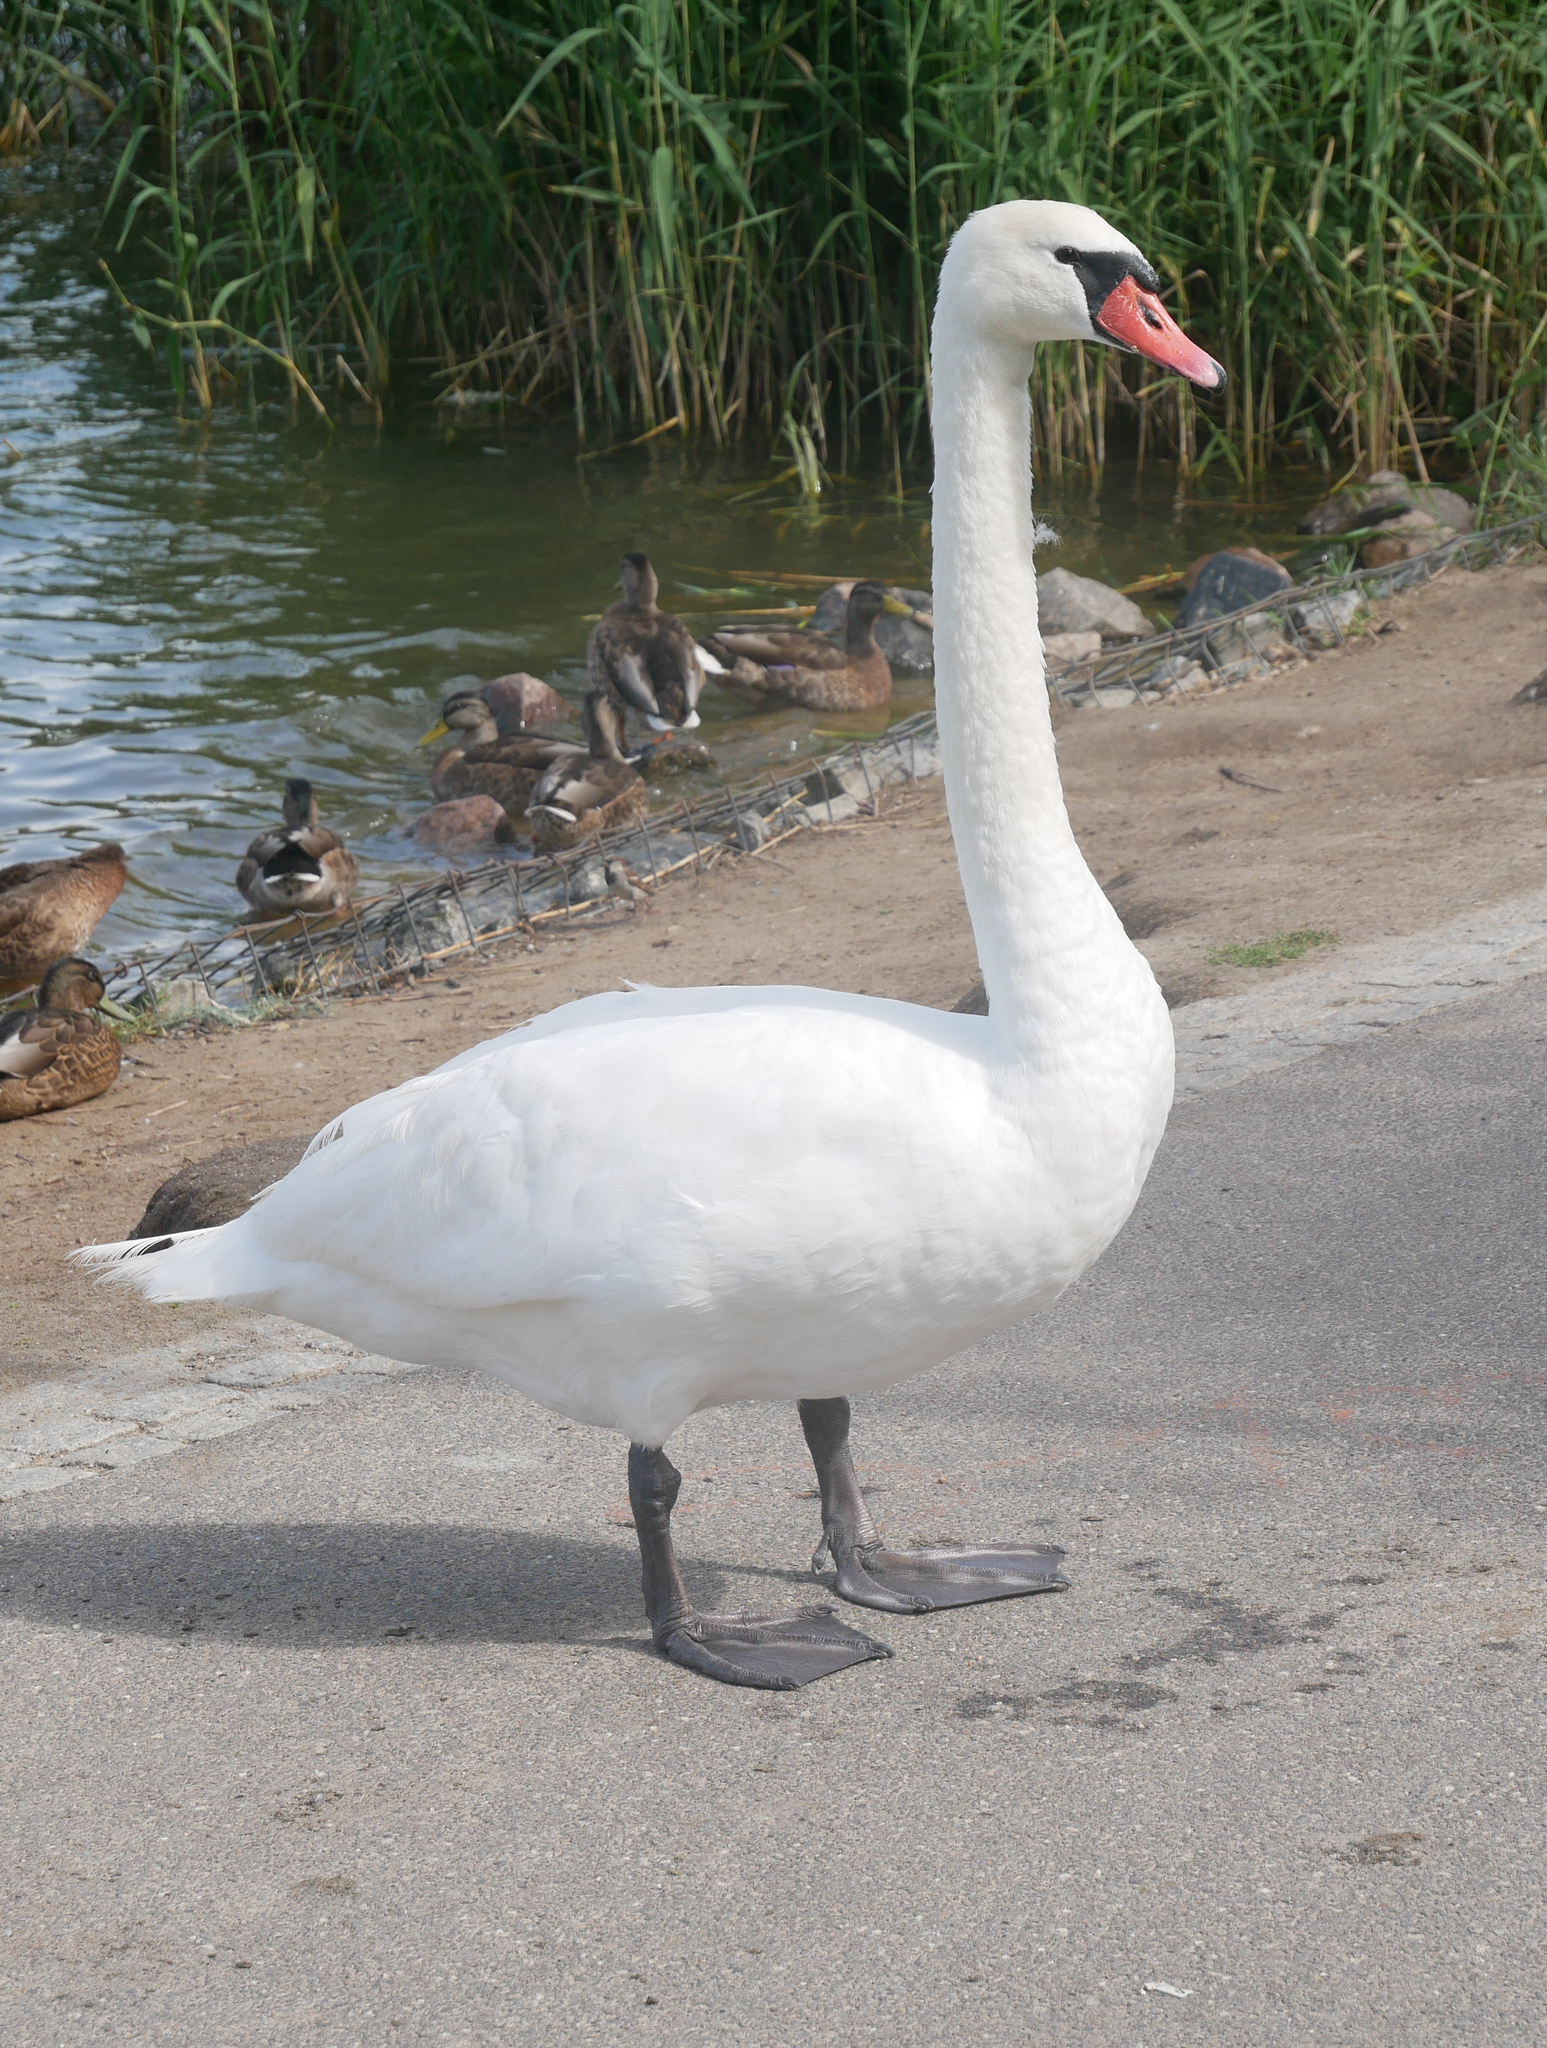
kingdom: Animalia
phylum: Chordata
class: Aves
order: Anseriformes
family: Anatidae
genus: Cygnus
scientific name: Cygnus olor
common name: Mute swan
